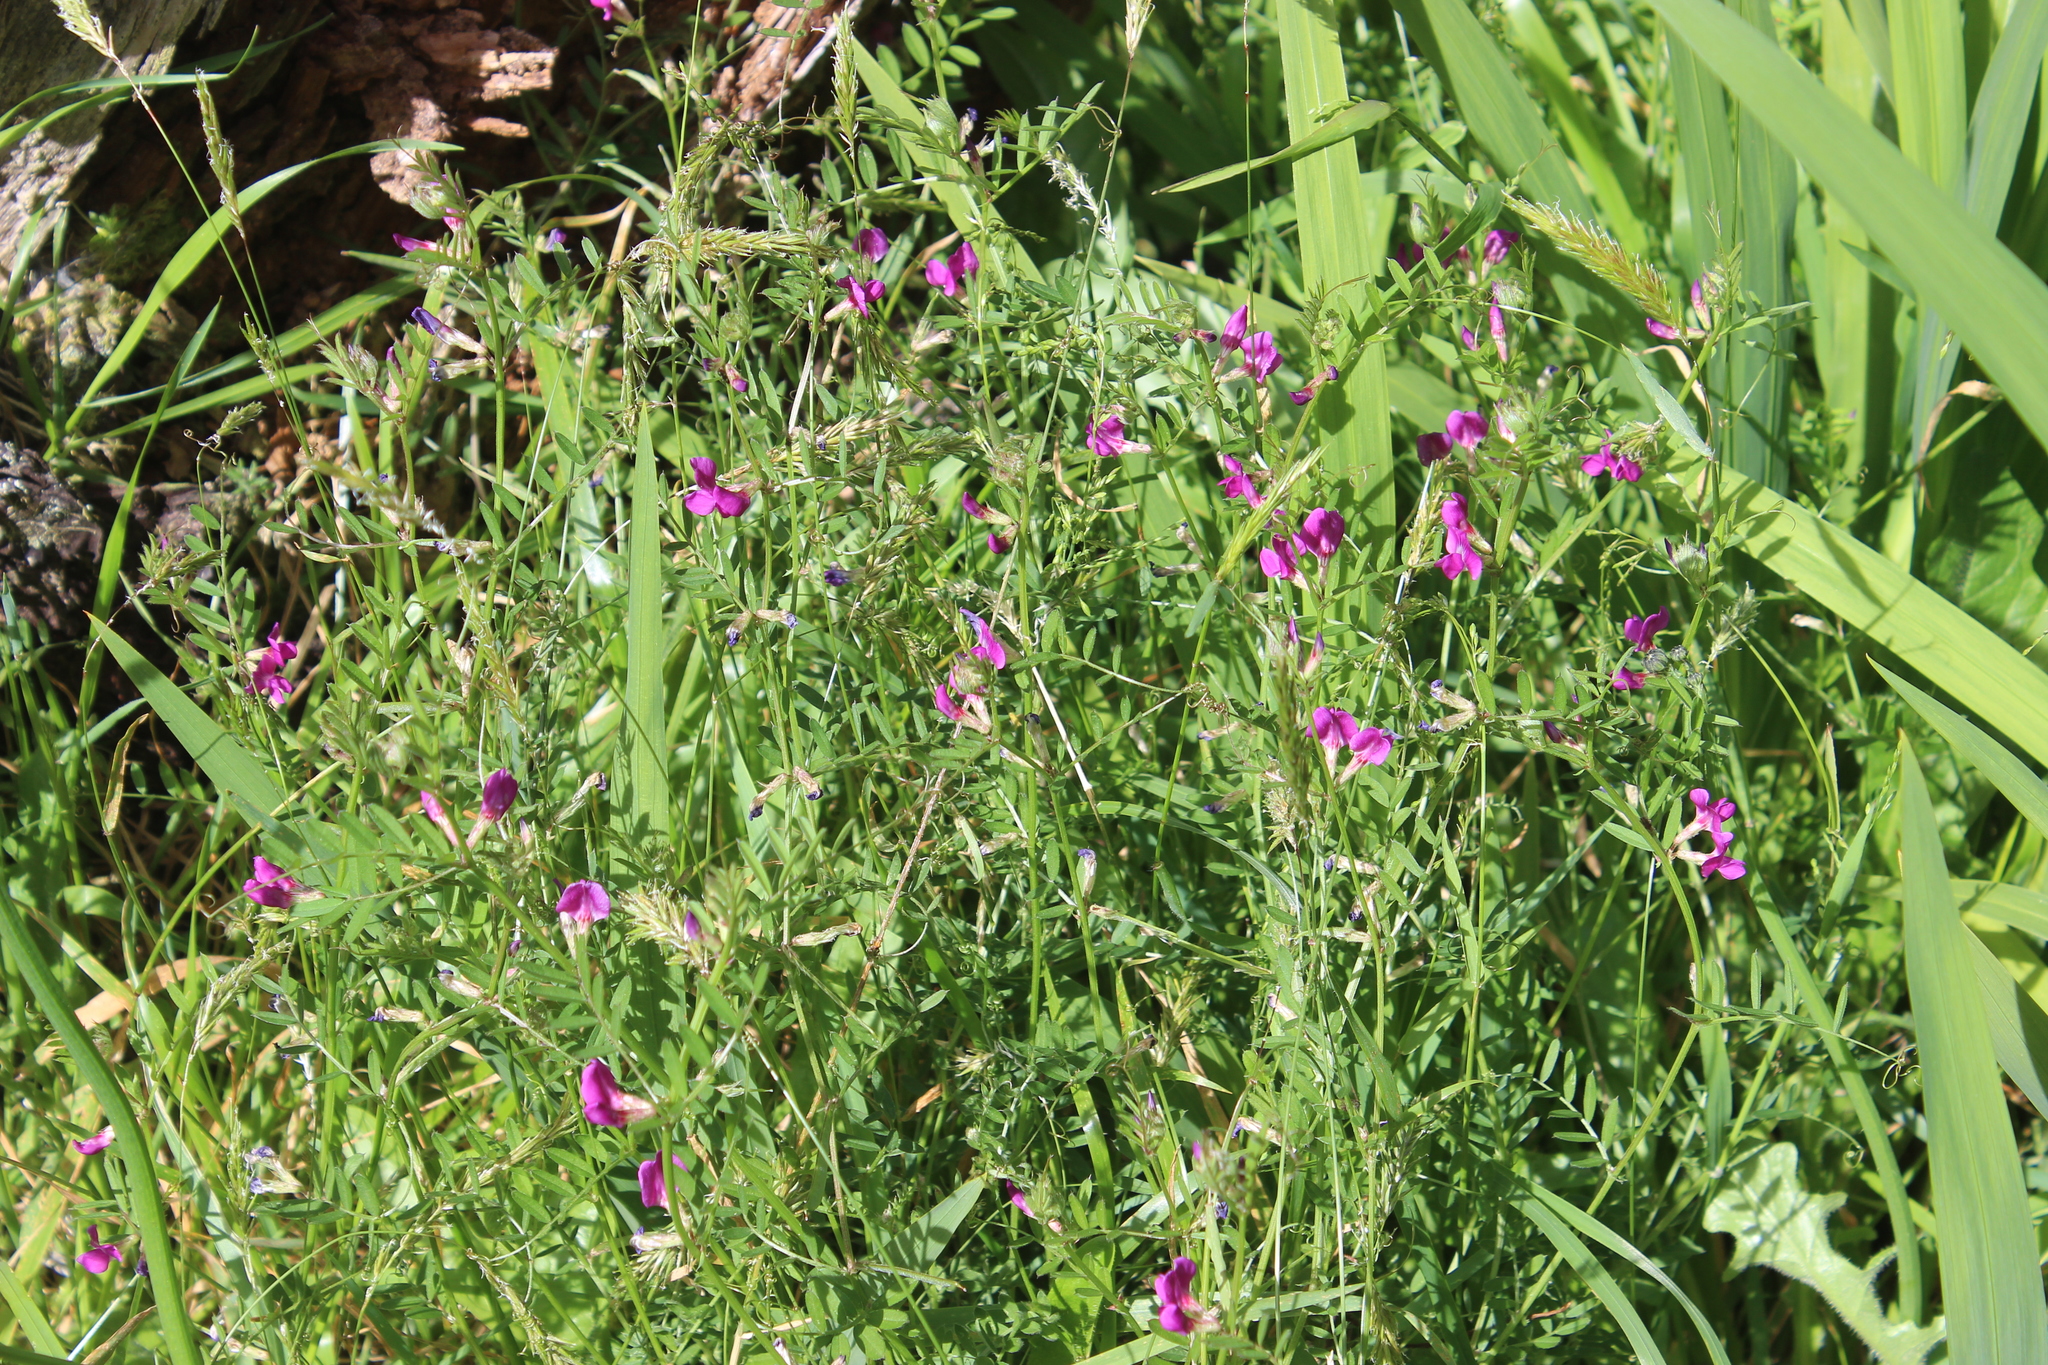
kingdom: Plantae
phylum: Tracheophyta
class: Magnoliopsida
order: Fabales
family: Fabaceae
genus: Vicia
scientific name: Vicia sativa
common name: Garden vetch
